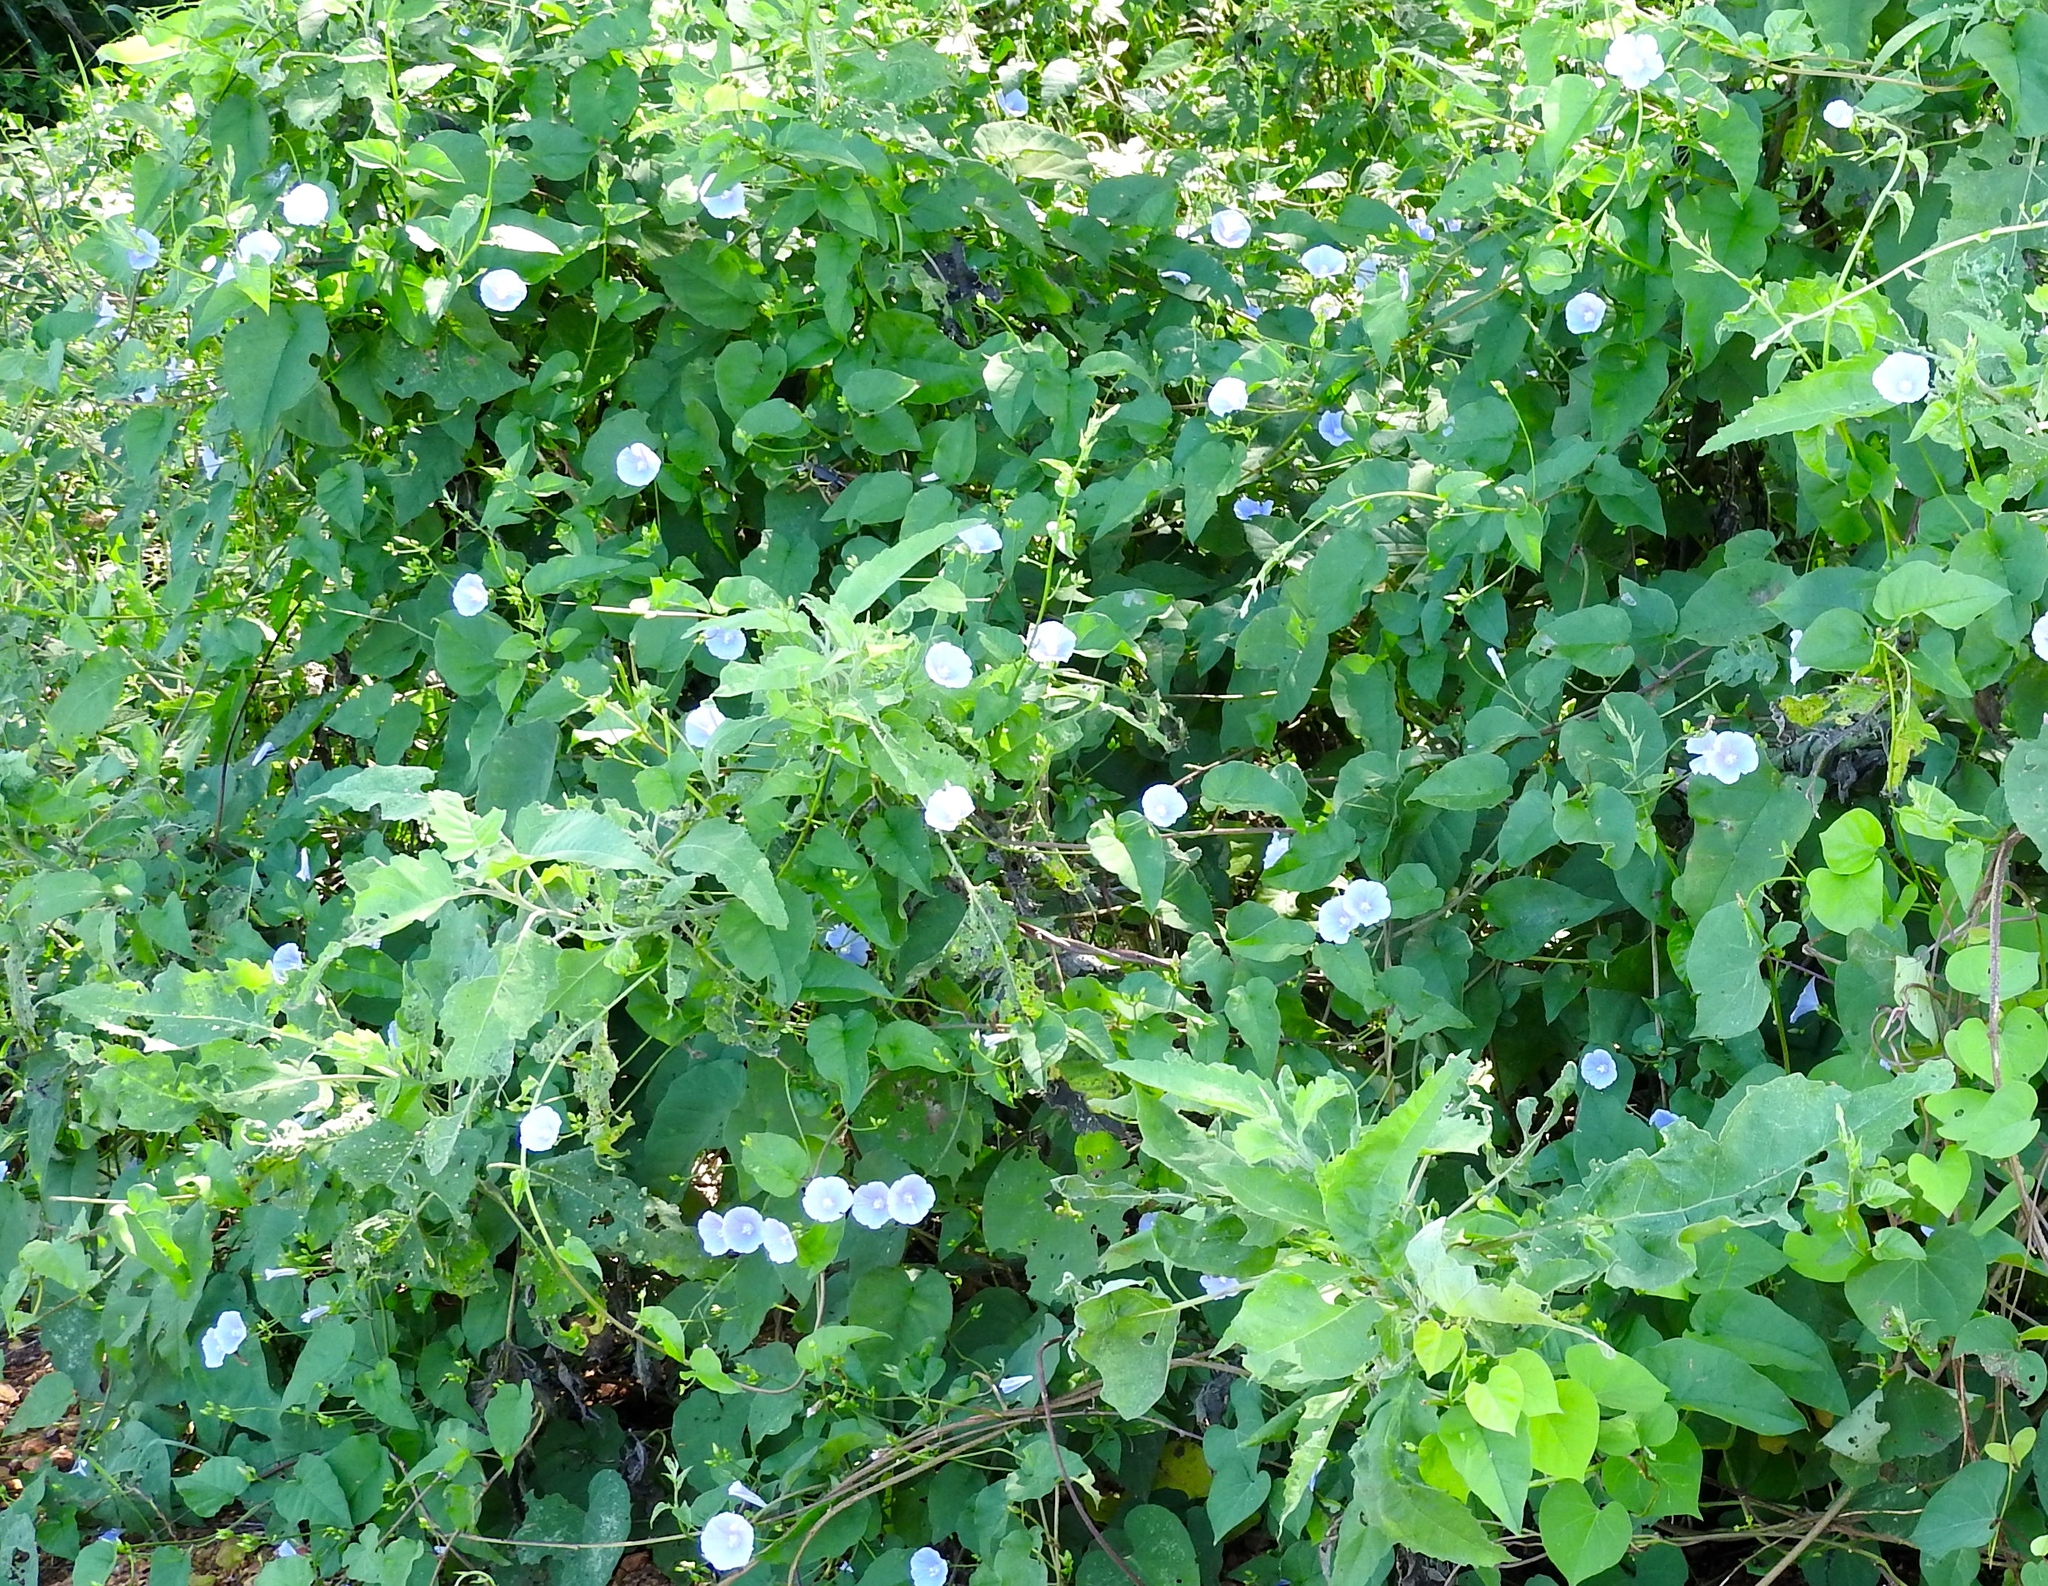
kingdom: Plantae
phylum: Tracheophyta
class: Magnoliopsida
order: Solanales
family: Convolvulaceae
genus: Jacquemontia
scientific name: Jacquemontia
